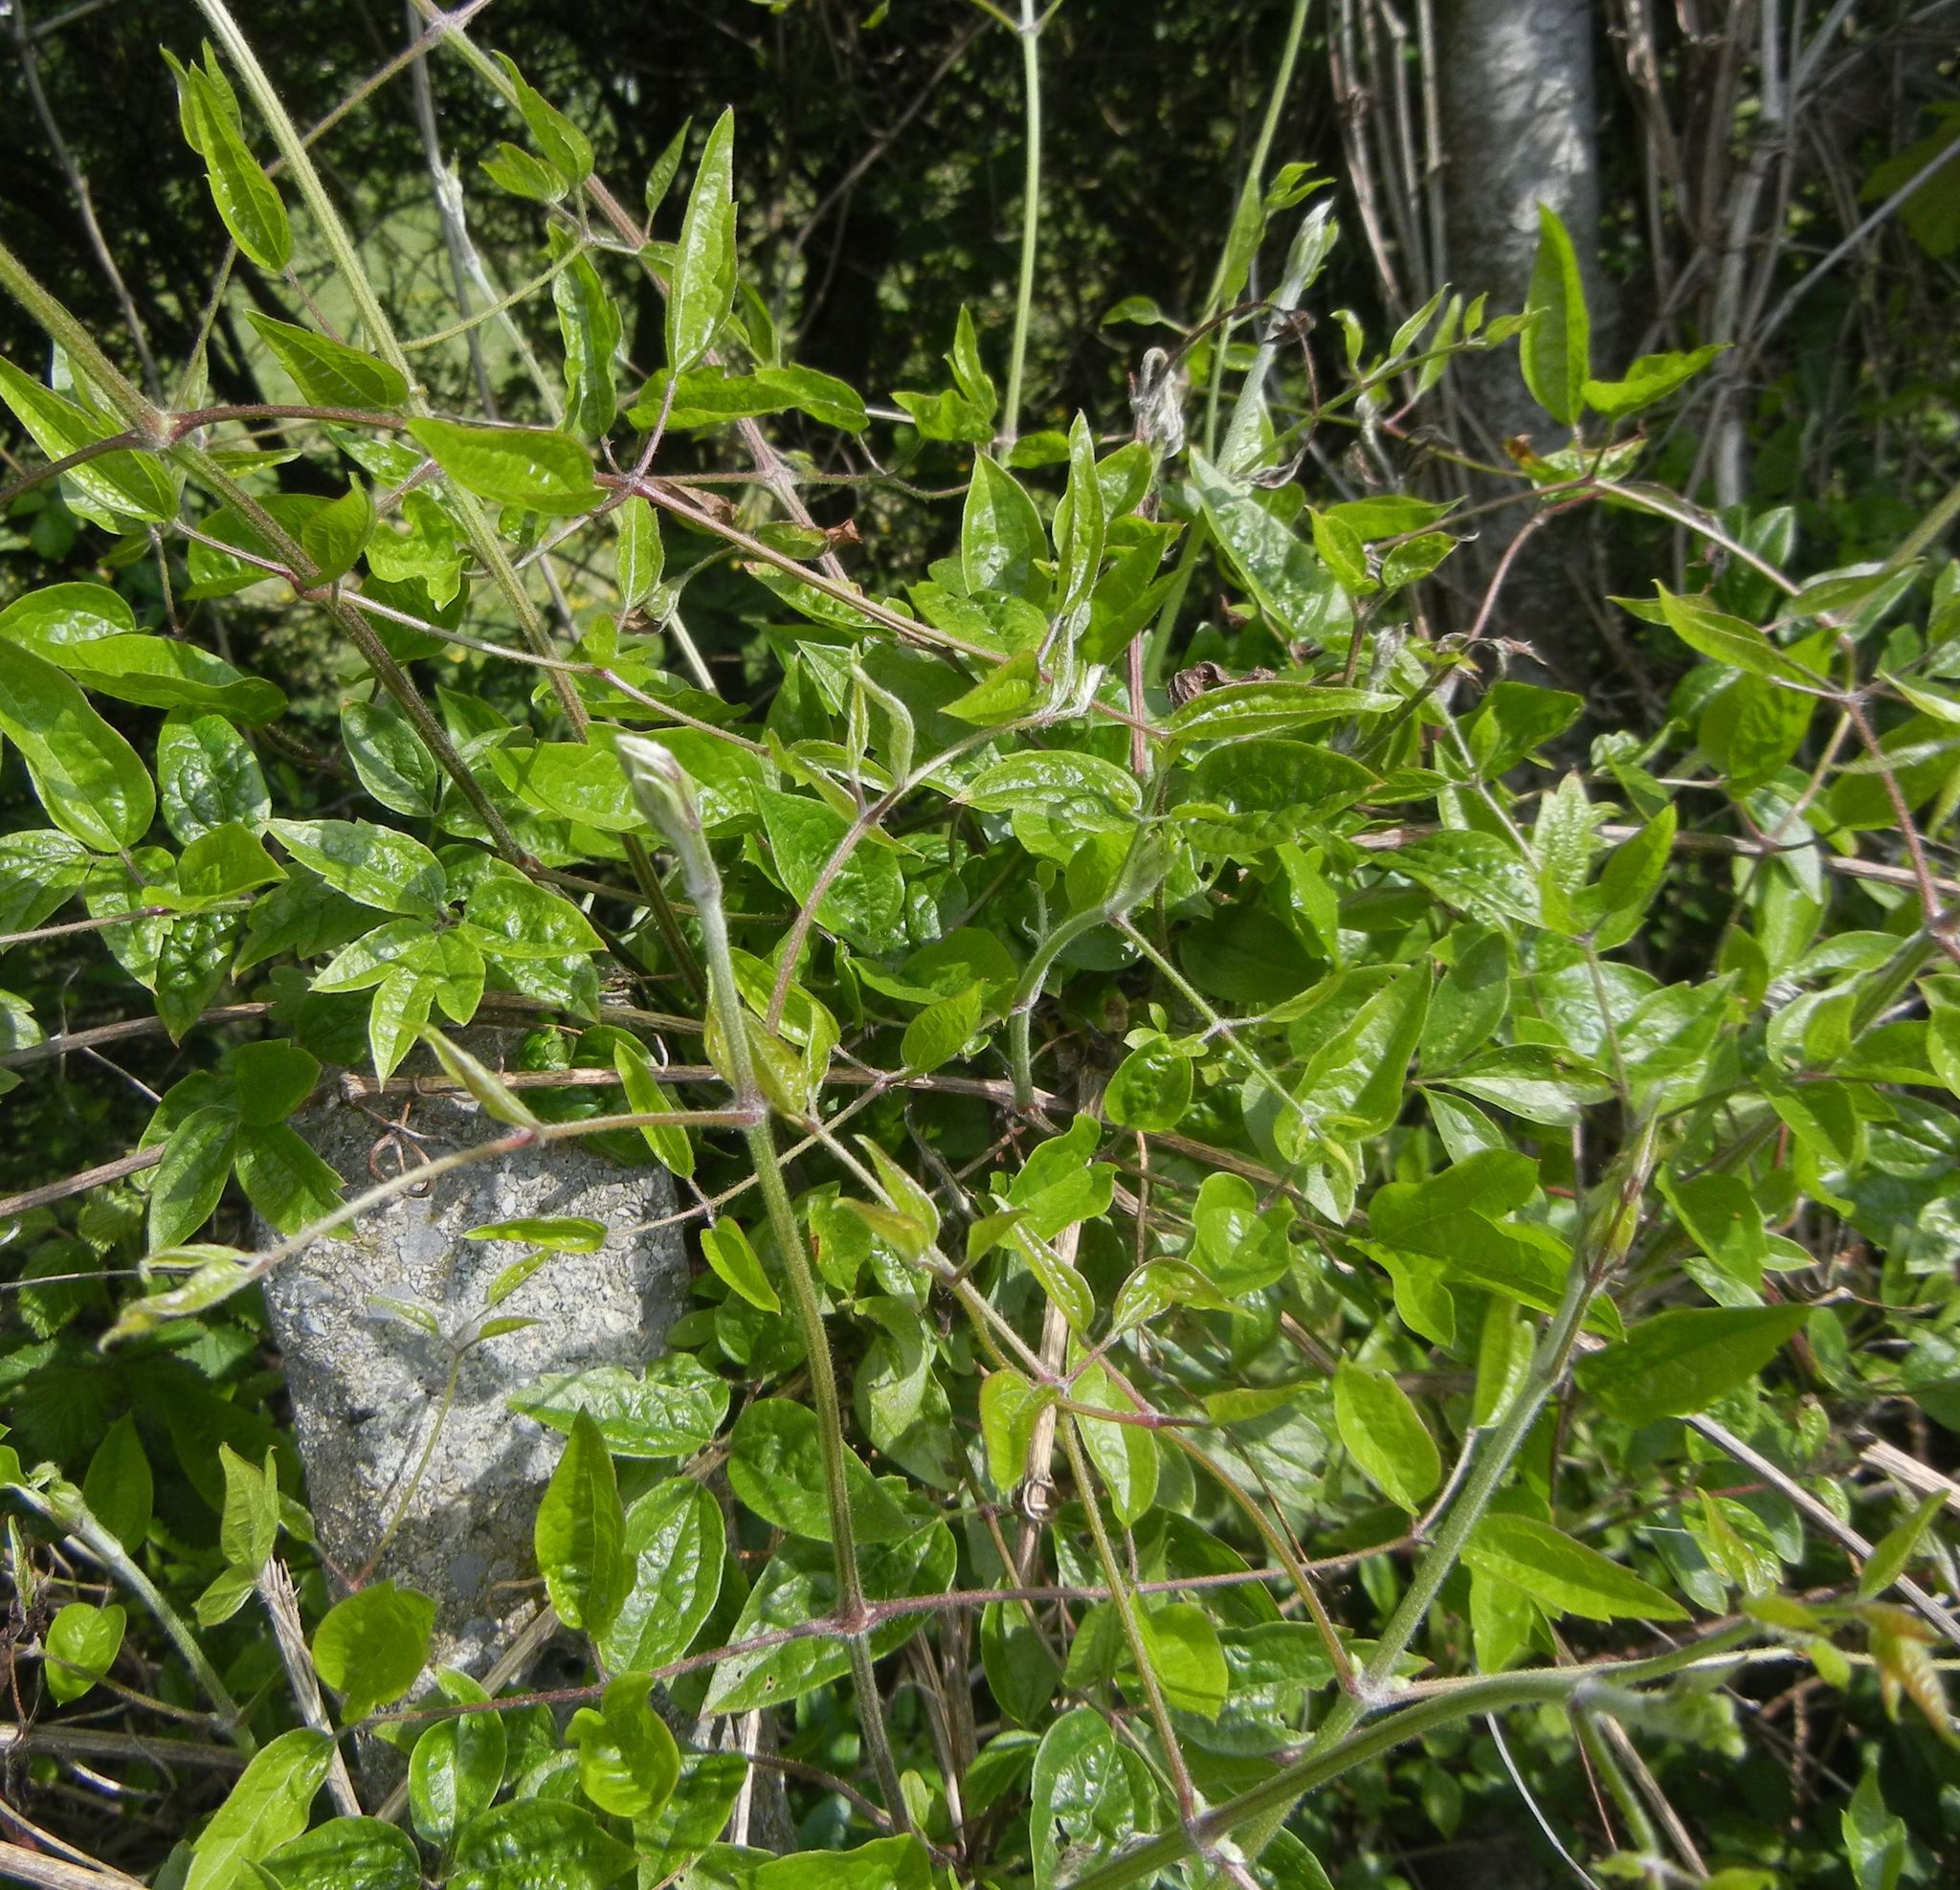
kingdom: Plantae
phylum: Tracheophyta
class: Magnoliopsida
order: Ranunculales
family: Ranunculaceae
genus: Clematis
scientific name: Clematis vitalba
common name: Evergreen clematis
